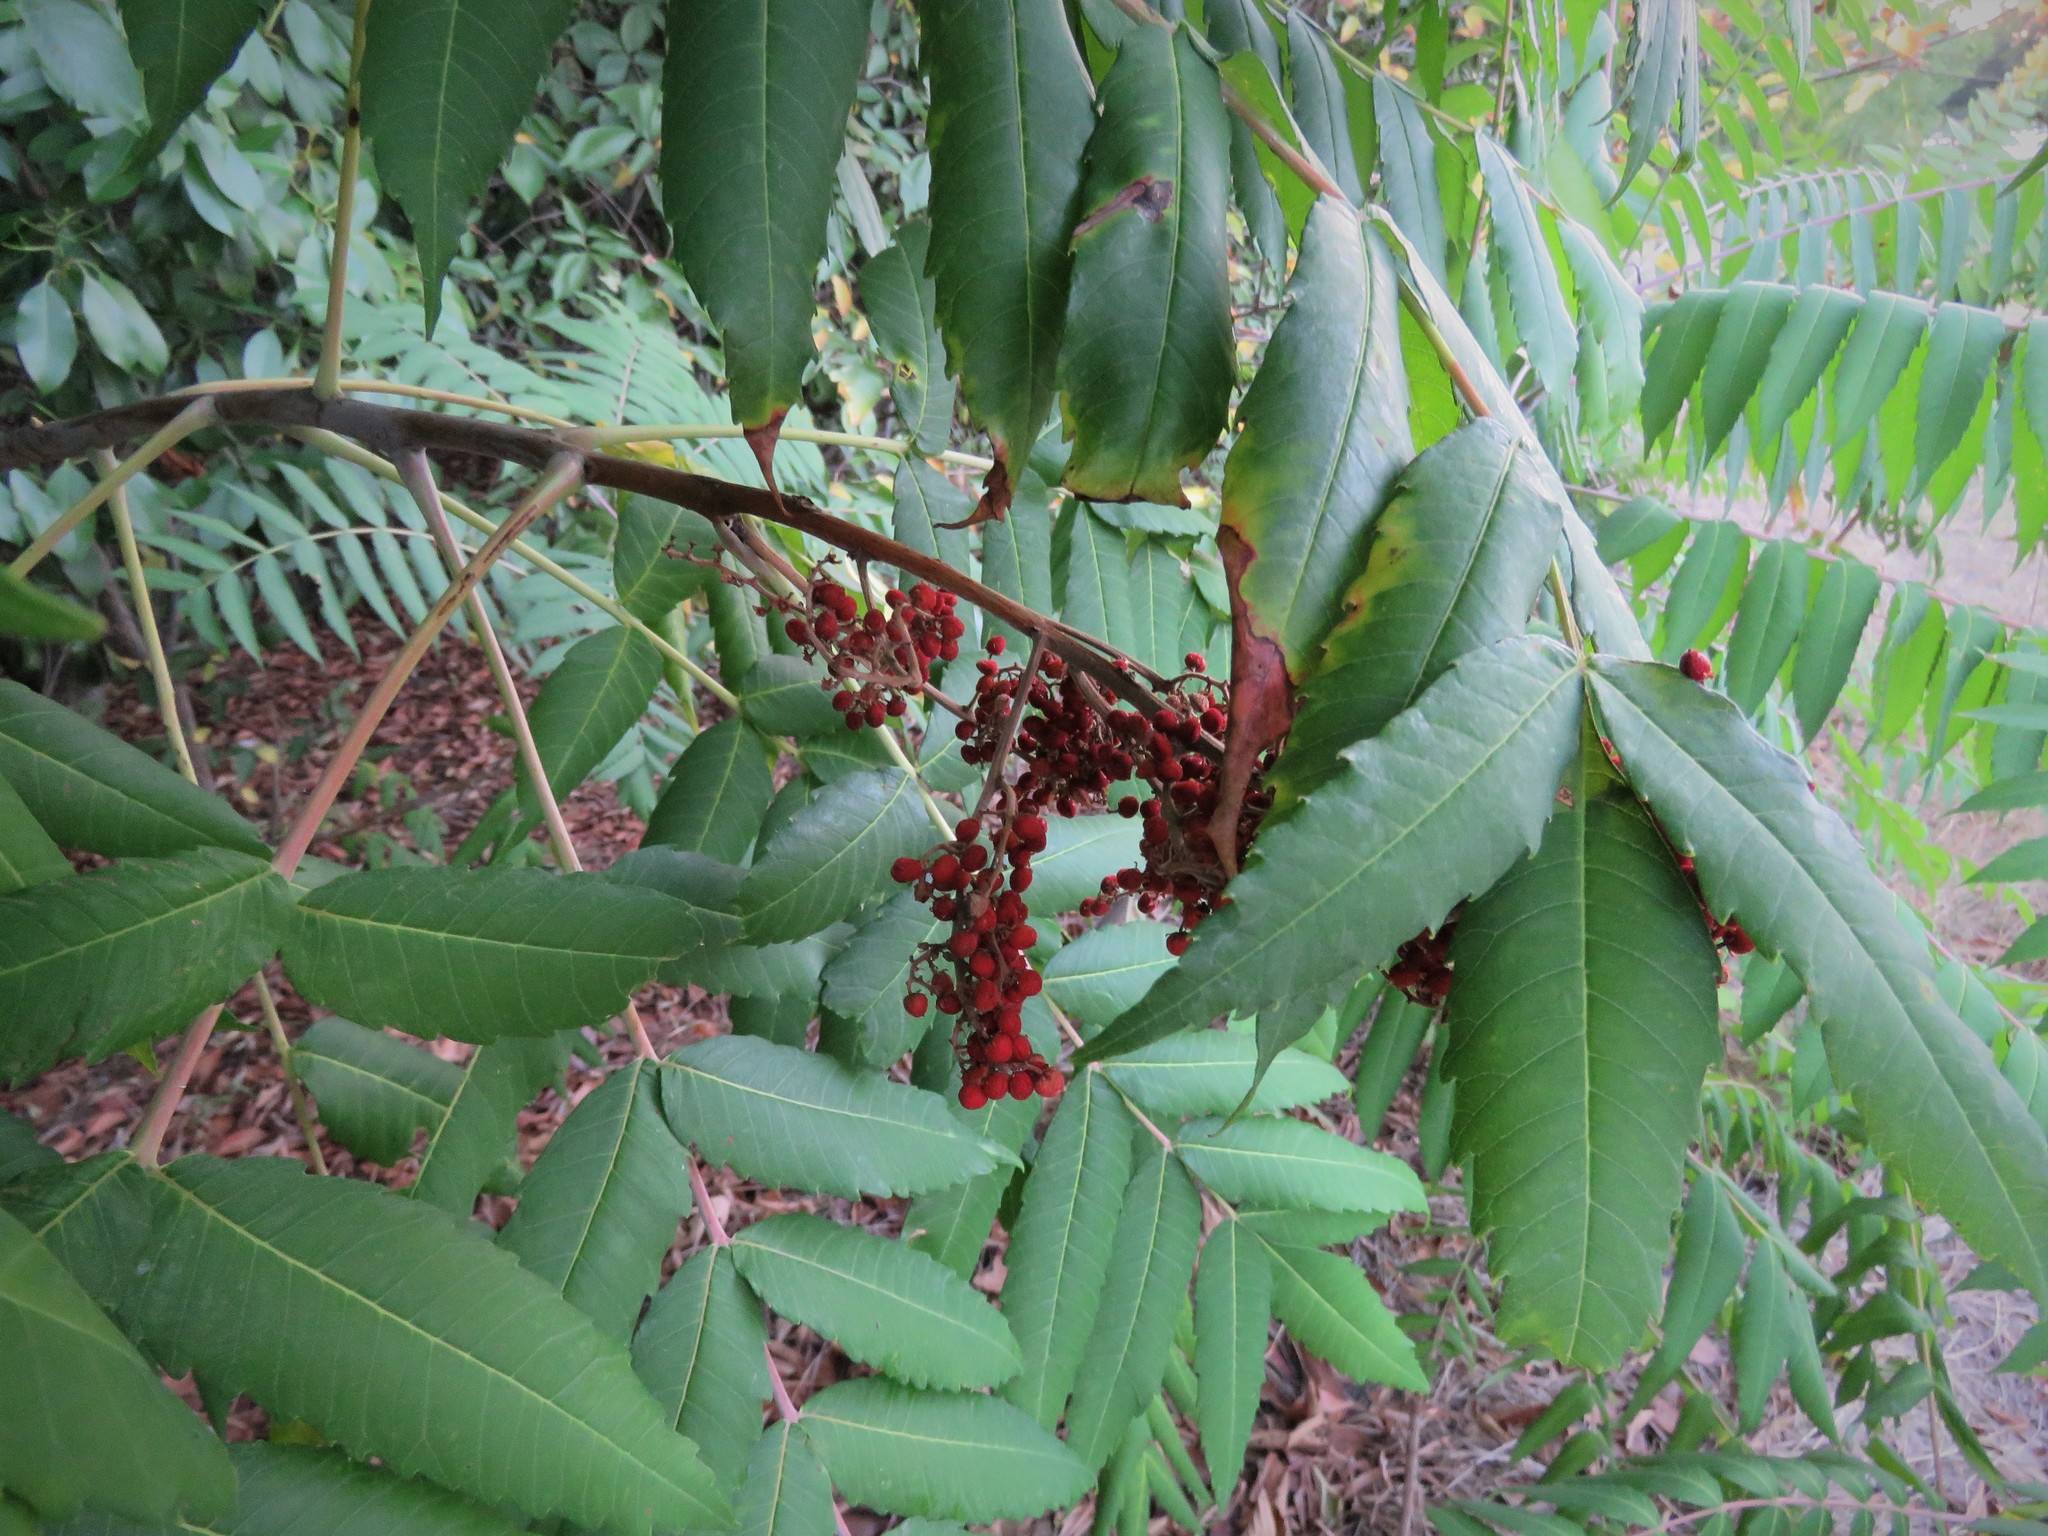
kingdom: Plantae
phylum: Tracheophyta
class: Magnoliopsida
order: Sapindales
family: Anacardiaceae
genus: Rhus
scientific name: Rhus glabra
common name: Scarlet sumac
